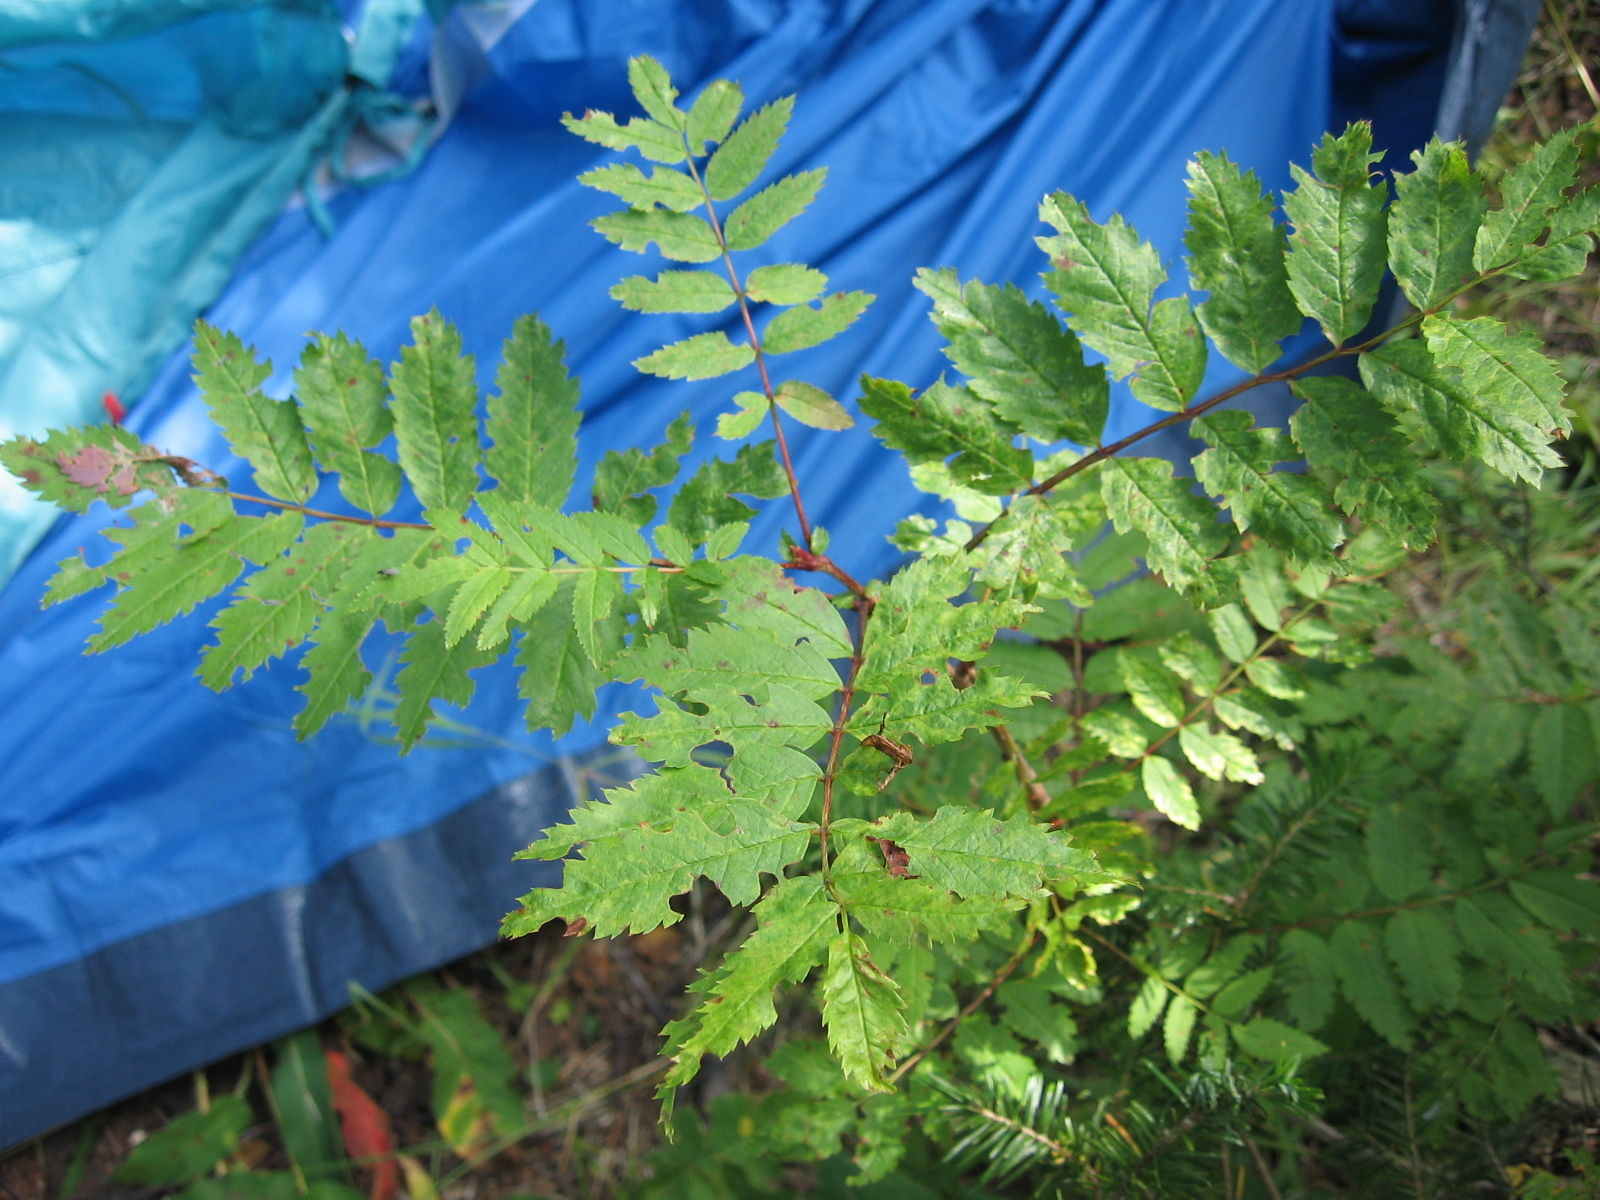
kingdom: Plantae
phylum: Tracheophyta
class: Magnoliopsida
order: Rosales
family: Rosaceae
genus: Sorbus
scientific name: Sorbus aucuparia
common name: Rowan
